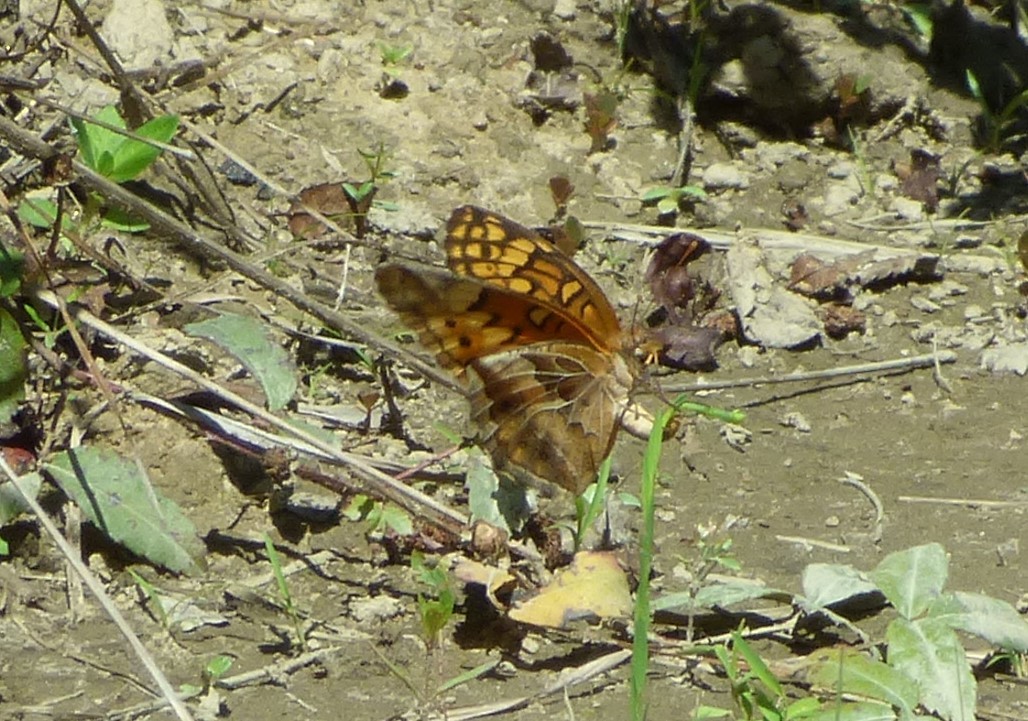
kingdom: Animalia
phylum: Arthropoda
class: Insecta
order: Lepidoptera
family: Nymphalidae
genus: Euptoieta
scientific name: Euptoieta claudia
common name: Variegated fritillary
